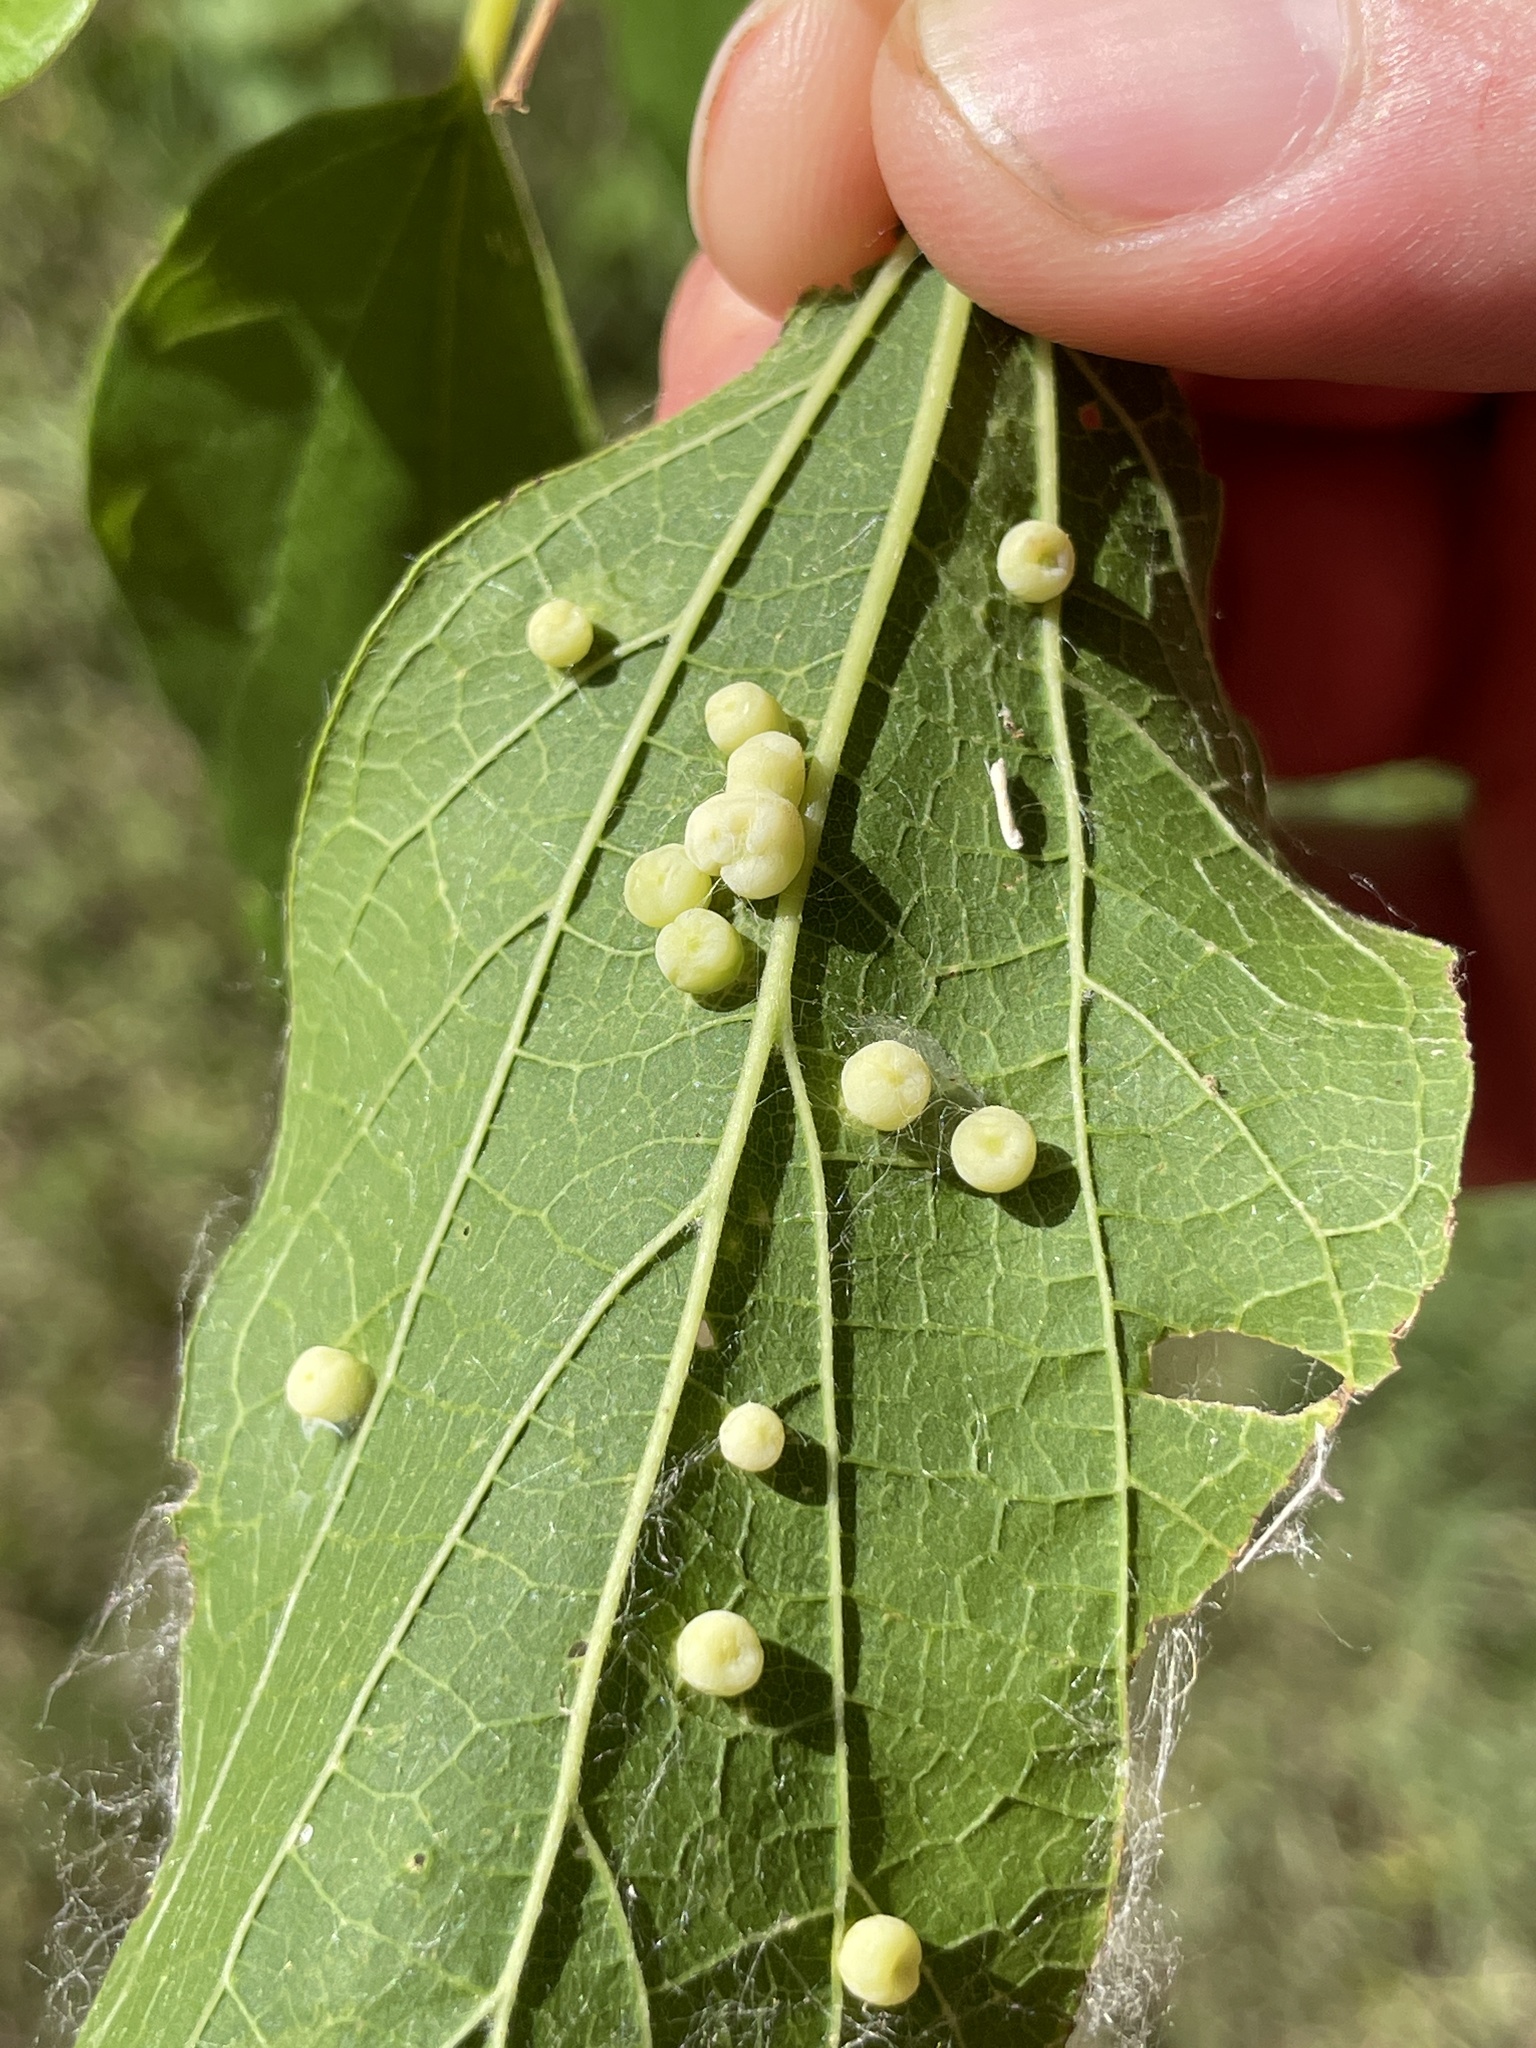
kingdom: Animalia
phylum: Arthropoda
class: Insecta
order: Hemiptera
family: Aphalaridae
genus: Pachypsylla
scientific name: Pachypsylla celtidismamma
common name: Hackberry nipplegall psyllid
